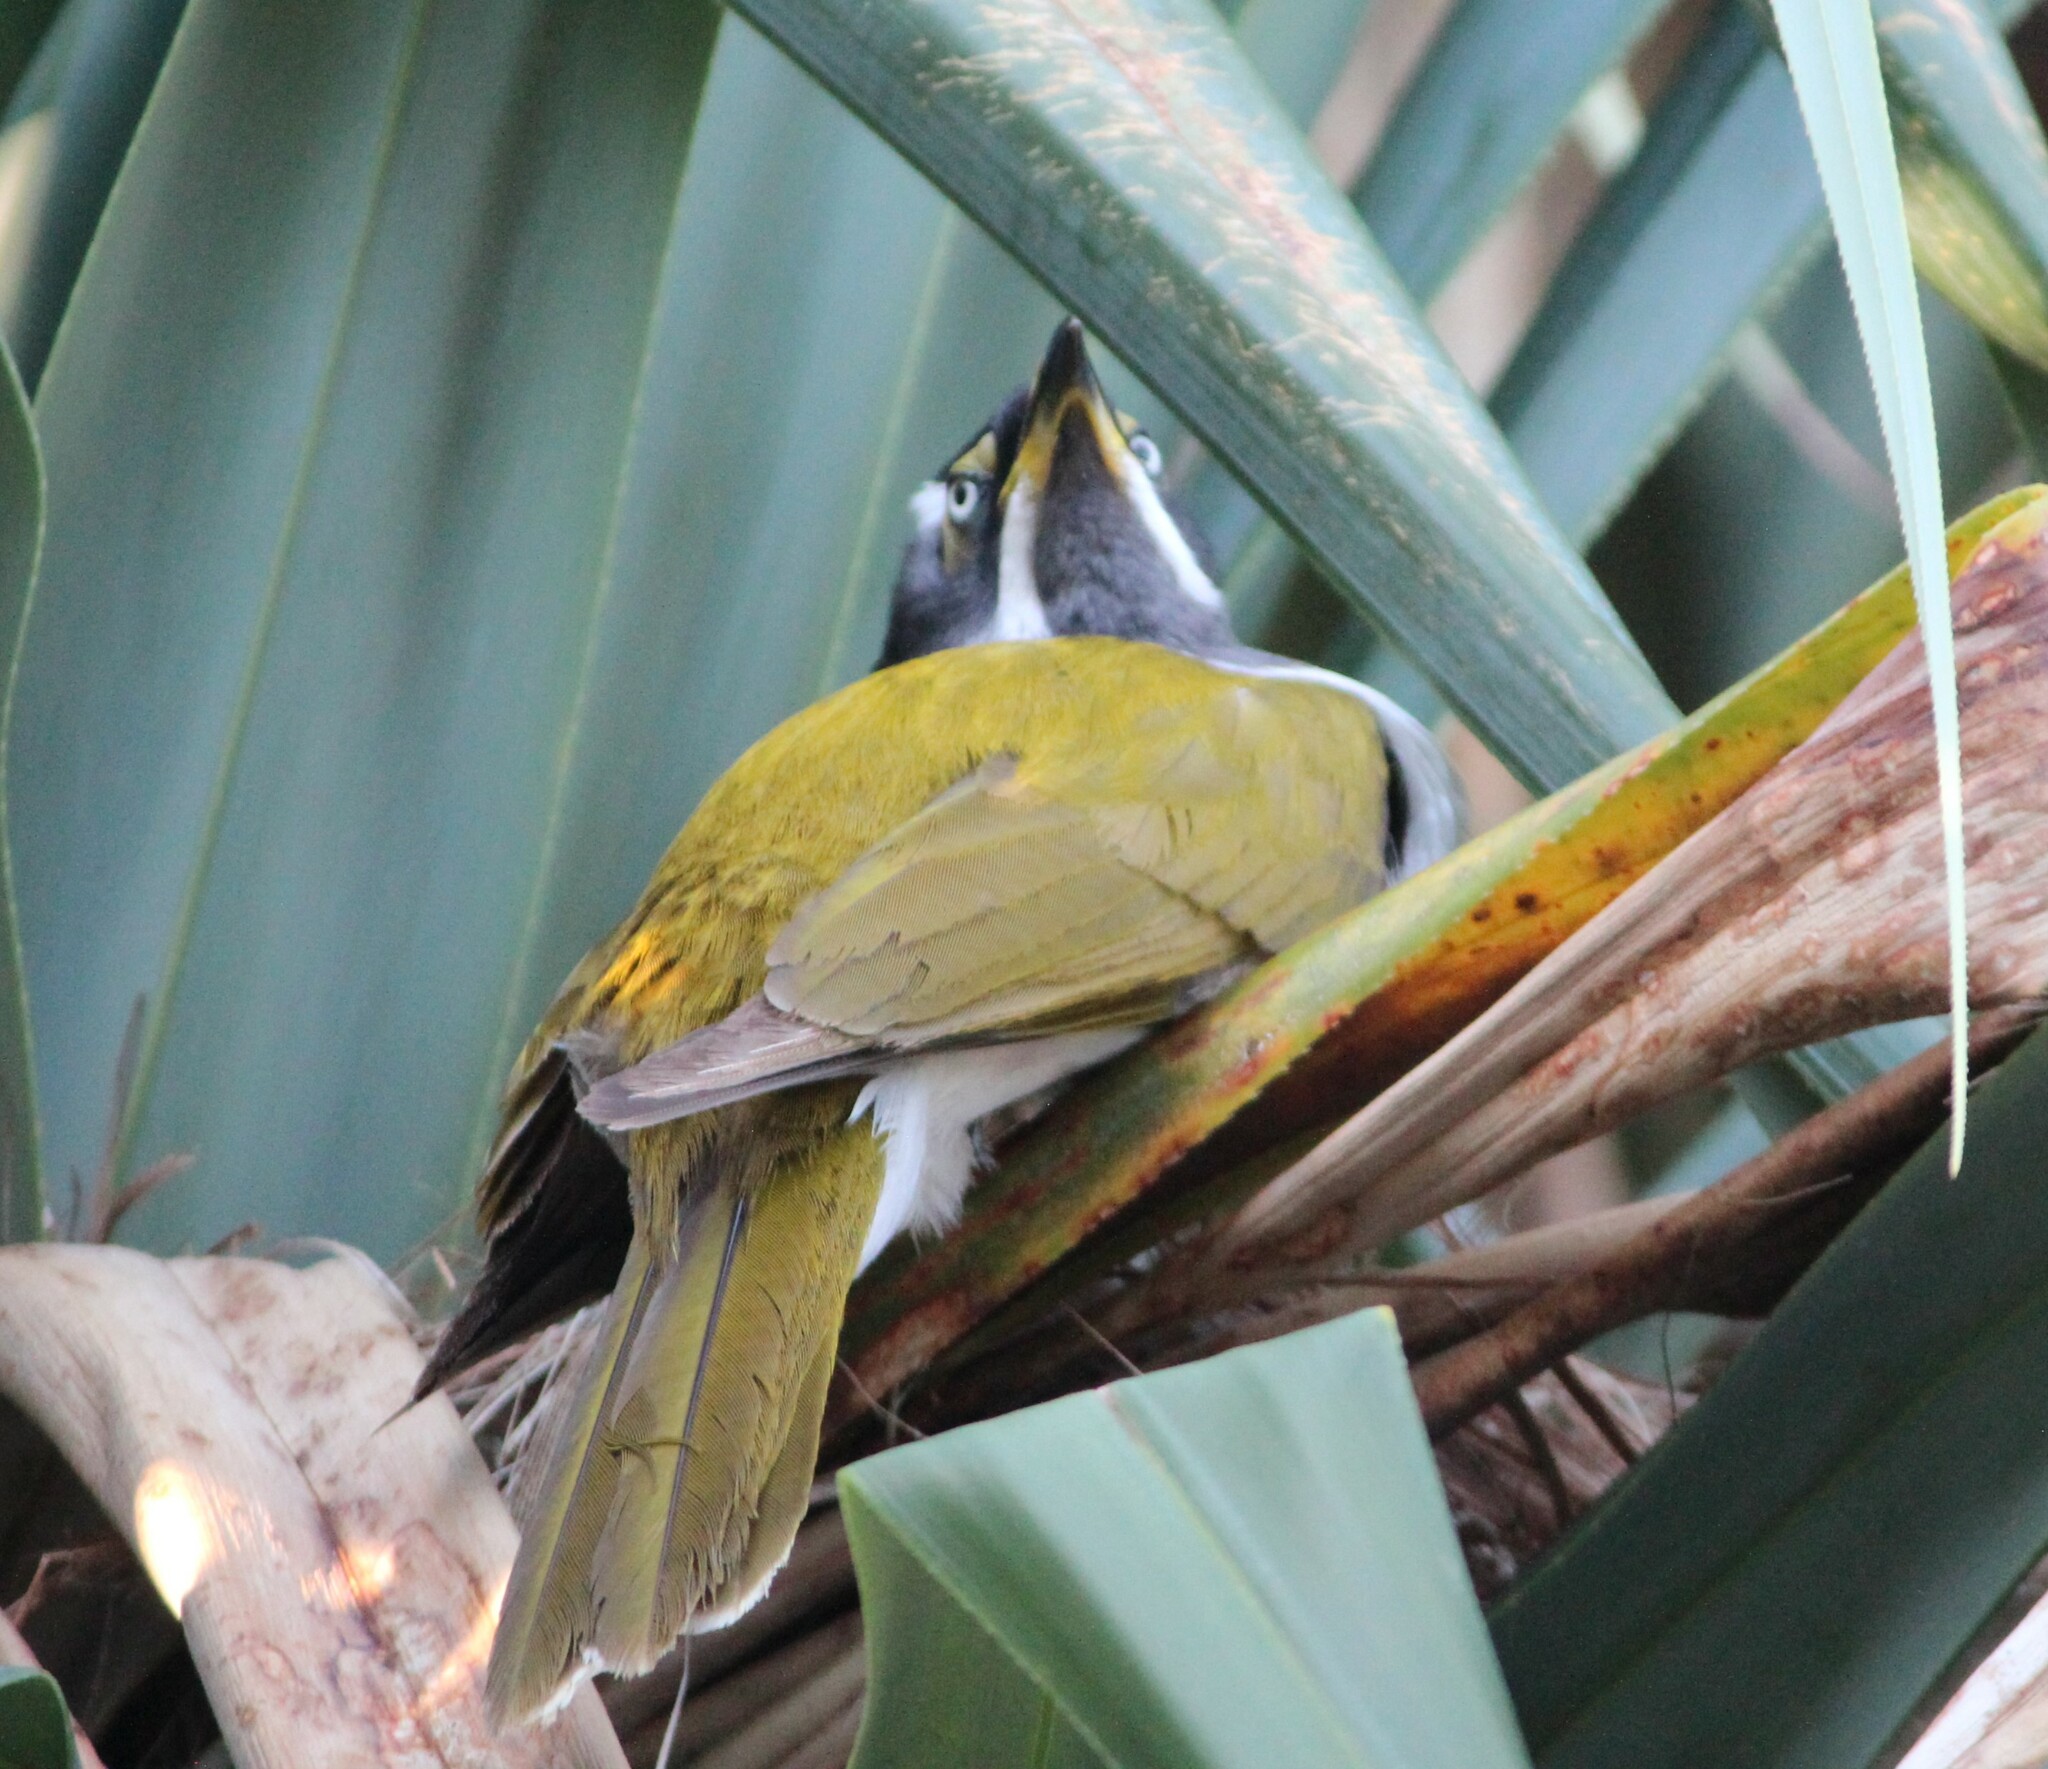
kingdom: Animalia
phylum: Chordata
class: Aves
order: Passeriformes
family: Meliphagidae
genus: Entomyzon
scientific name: Entomyzon cyanotis
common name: Blue-faced honeyeater
